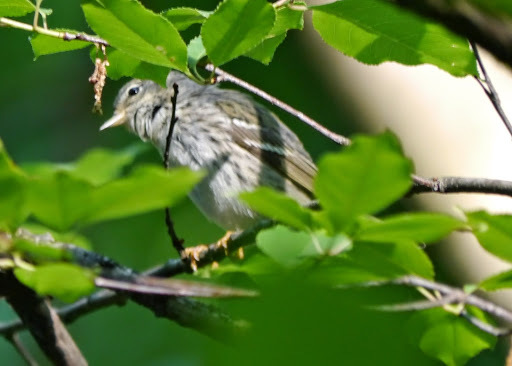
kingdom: Animalia
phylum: Chordata
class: Aves
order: Passeriformes
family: Parulidae
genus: Setophaga
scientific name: Setophaga striata
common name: Blackpoll warbler
